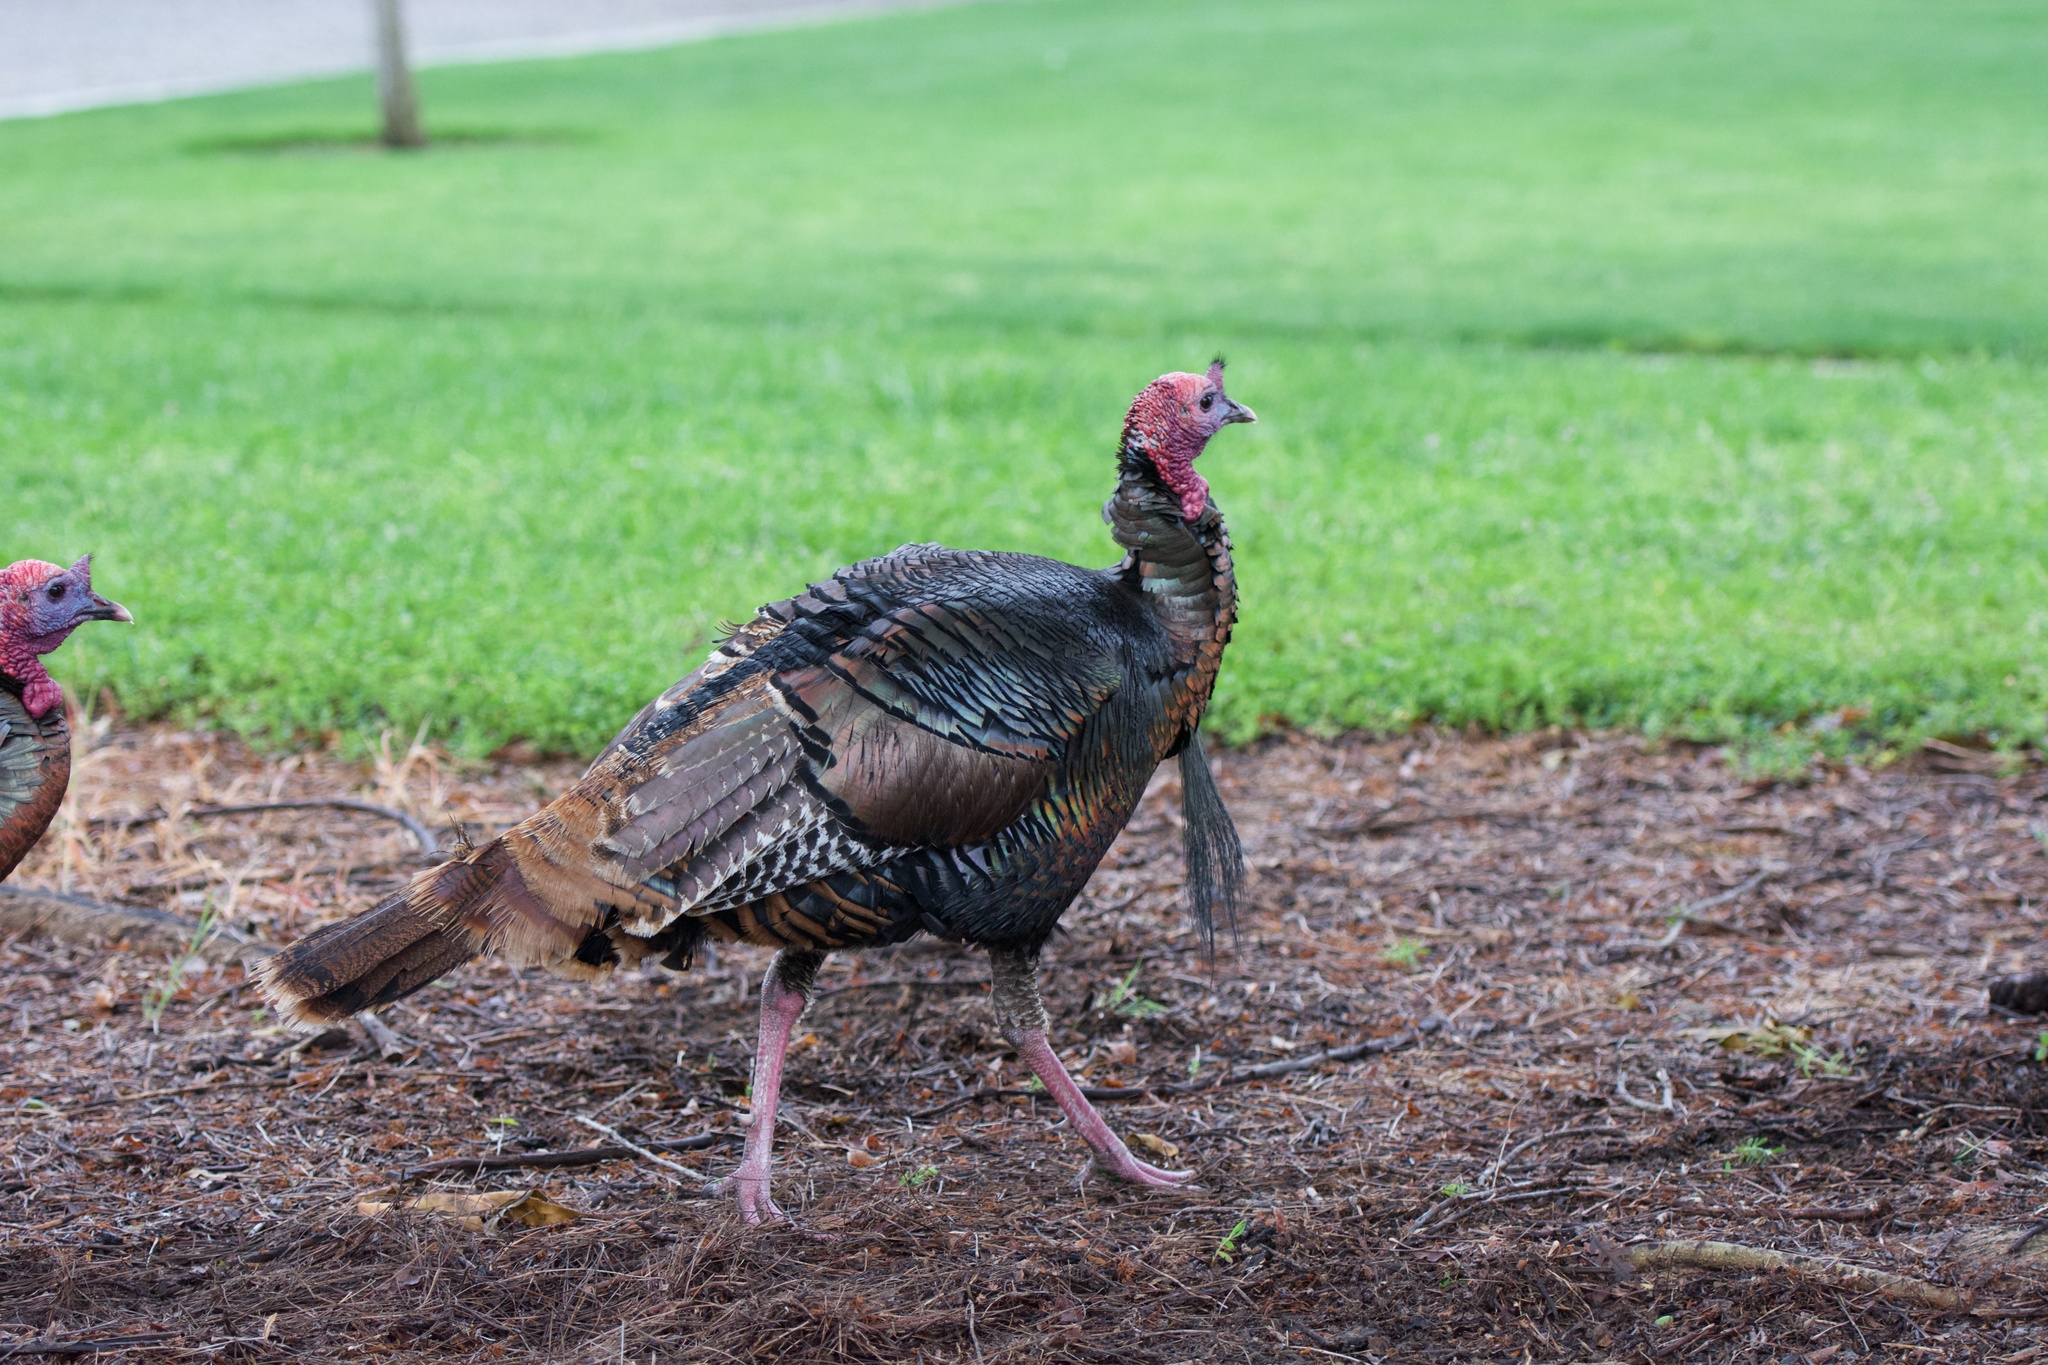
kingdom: Animalia
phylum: Chordata
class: Aves
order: Galliformes
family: Phasianidae
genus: Meleagris
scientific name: Meleagris gallopavo
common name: Wild turkey
